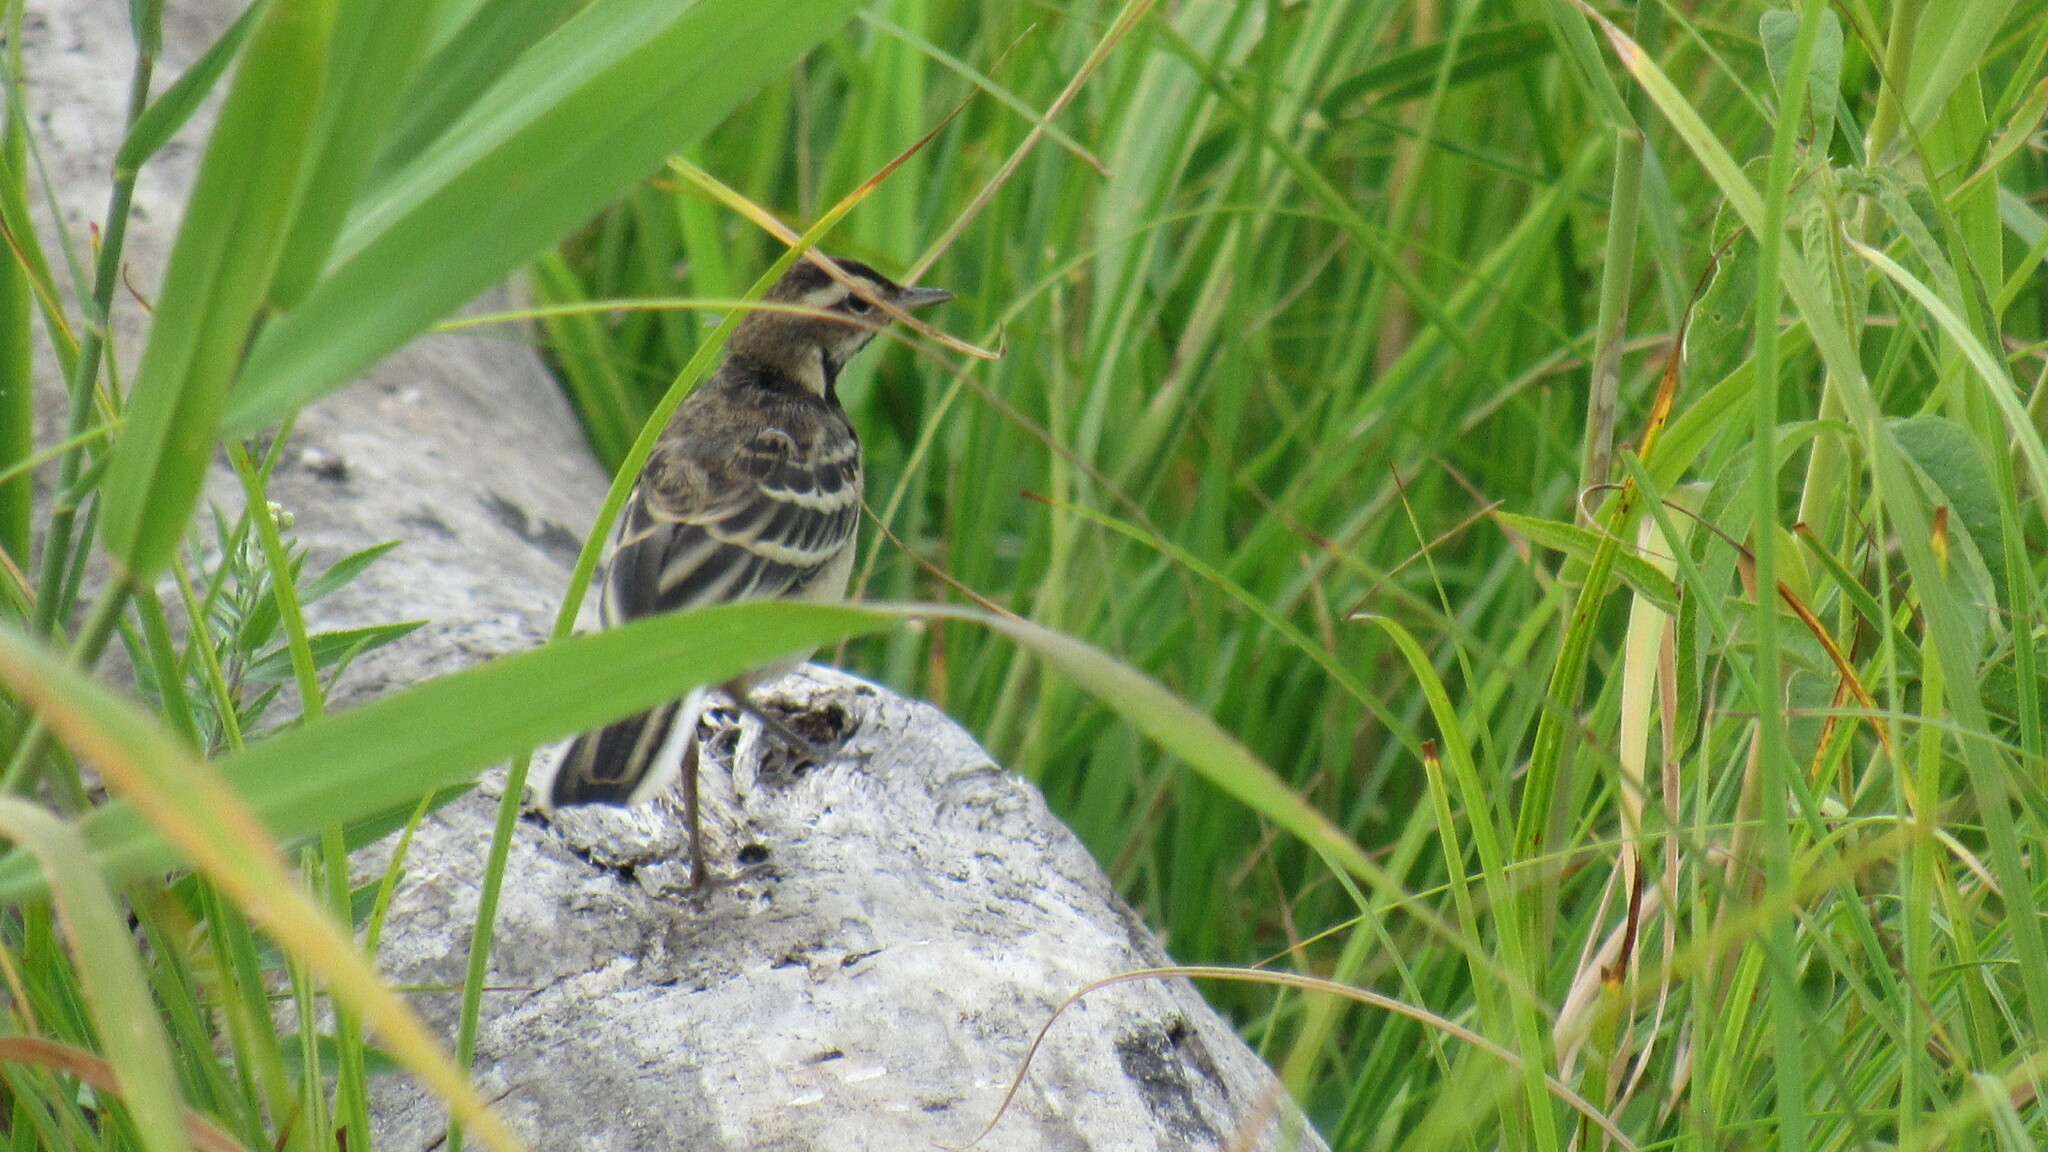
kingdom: Animalia
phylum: Chordata
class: Aves
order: Passeriformes
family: Motacillidae
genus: Motacilla
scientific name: Motacilla flava
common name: Western yellow wagtail
